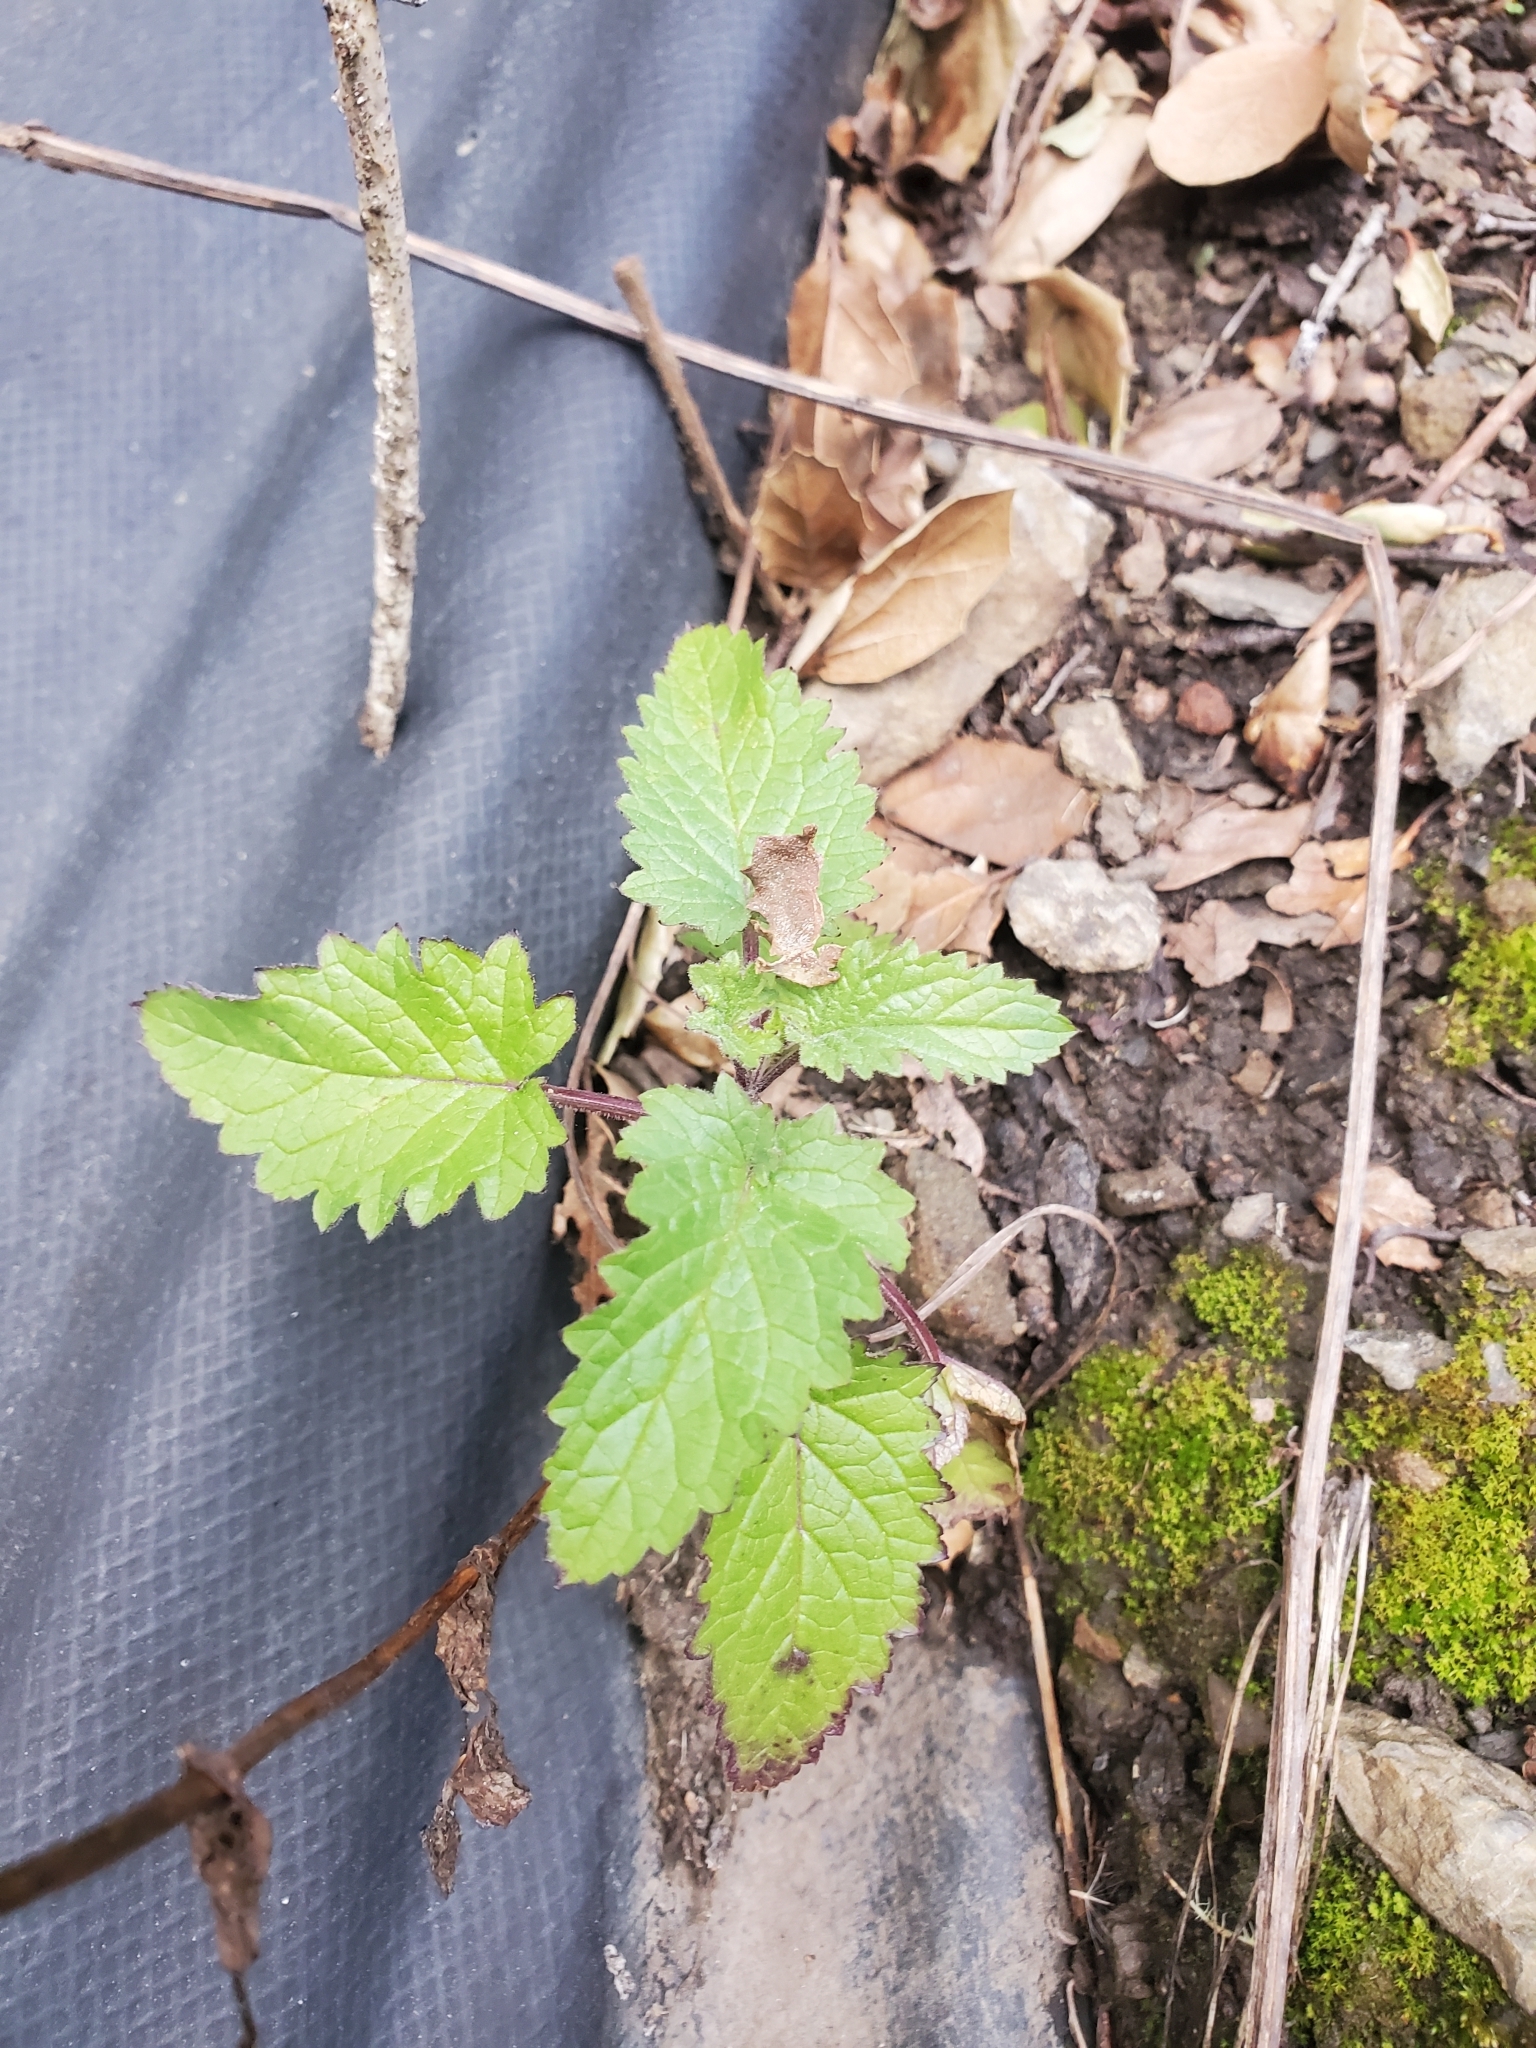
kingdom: Plantae
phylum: Tracheophyta
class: Magnoliopsida
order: Lamiales
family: Scrophulariaceae
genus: Scrophularia
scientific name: Scrophularia californica
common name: California figwort
